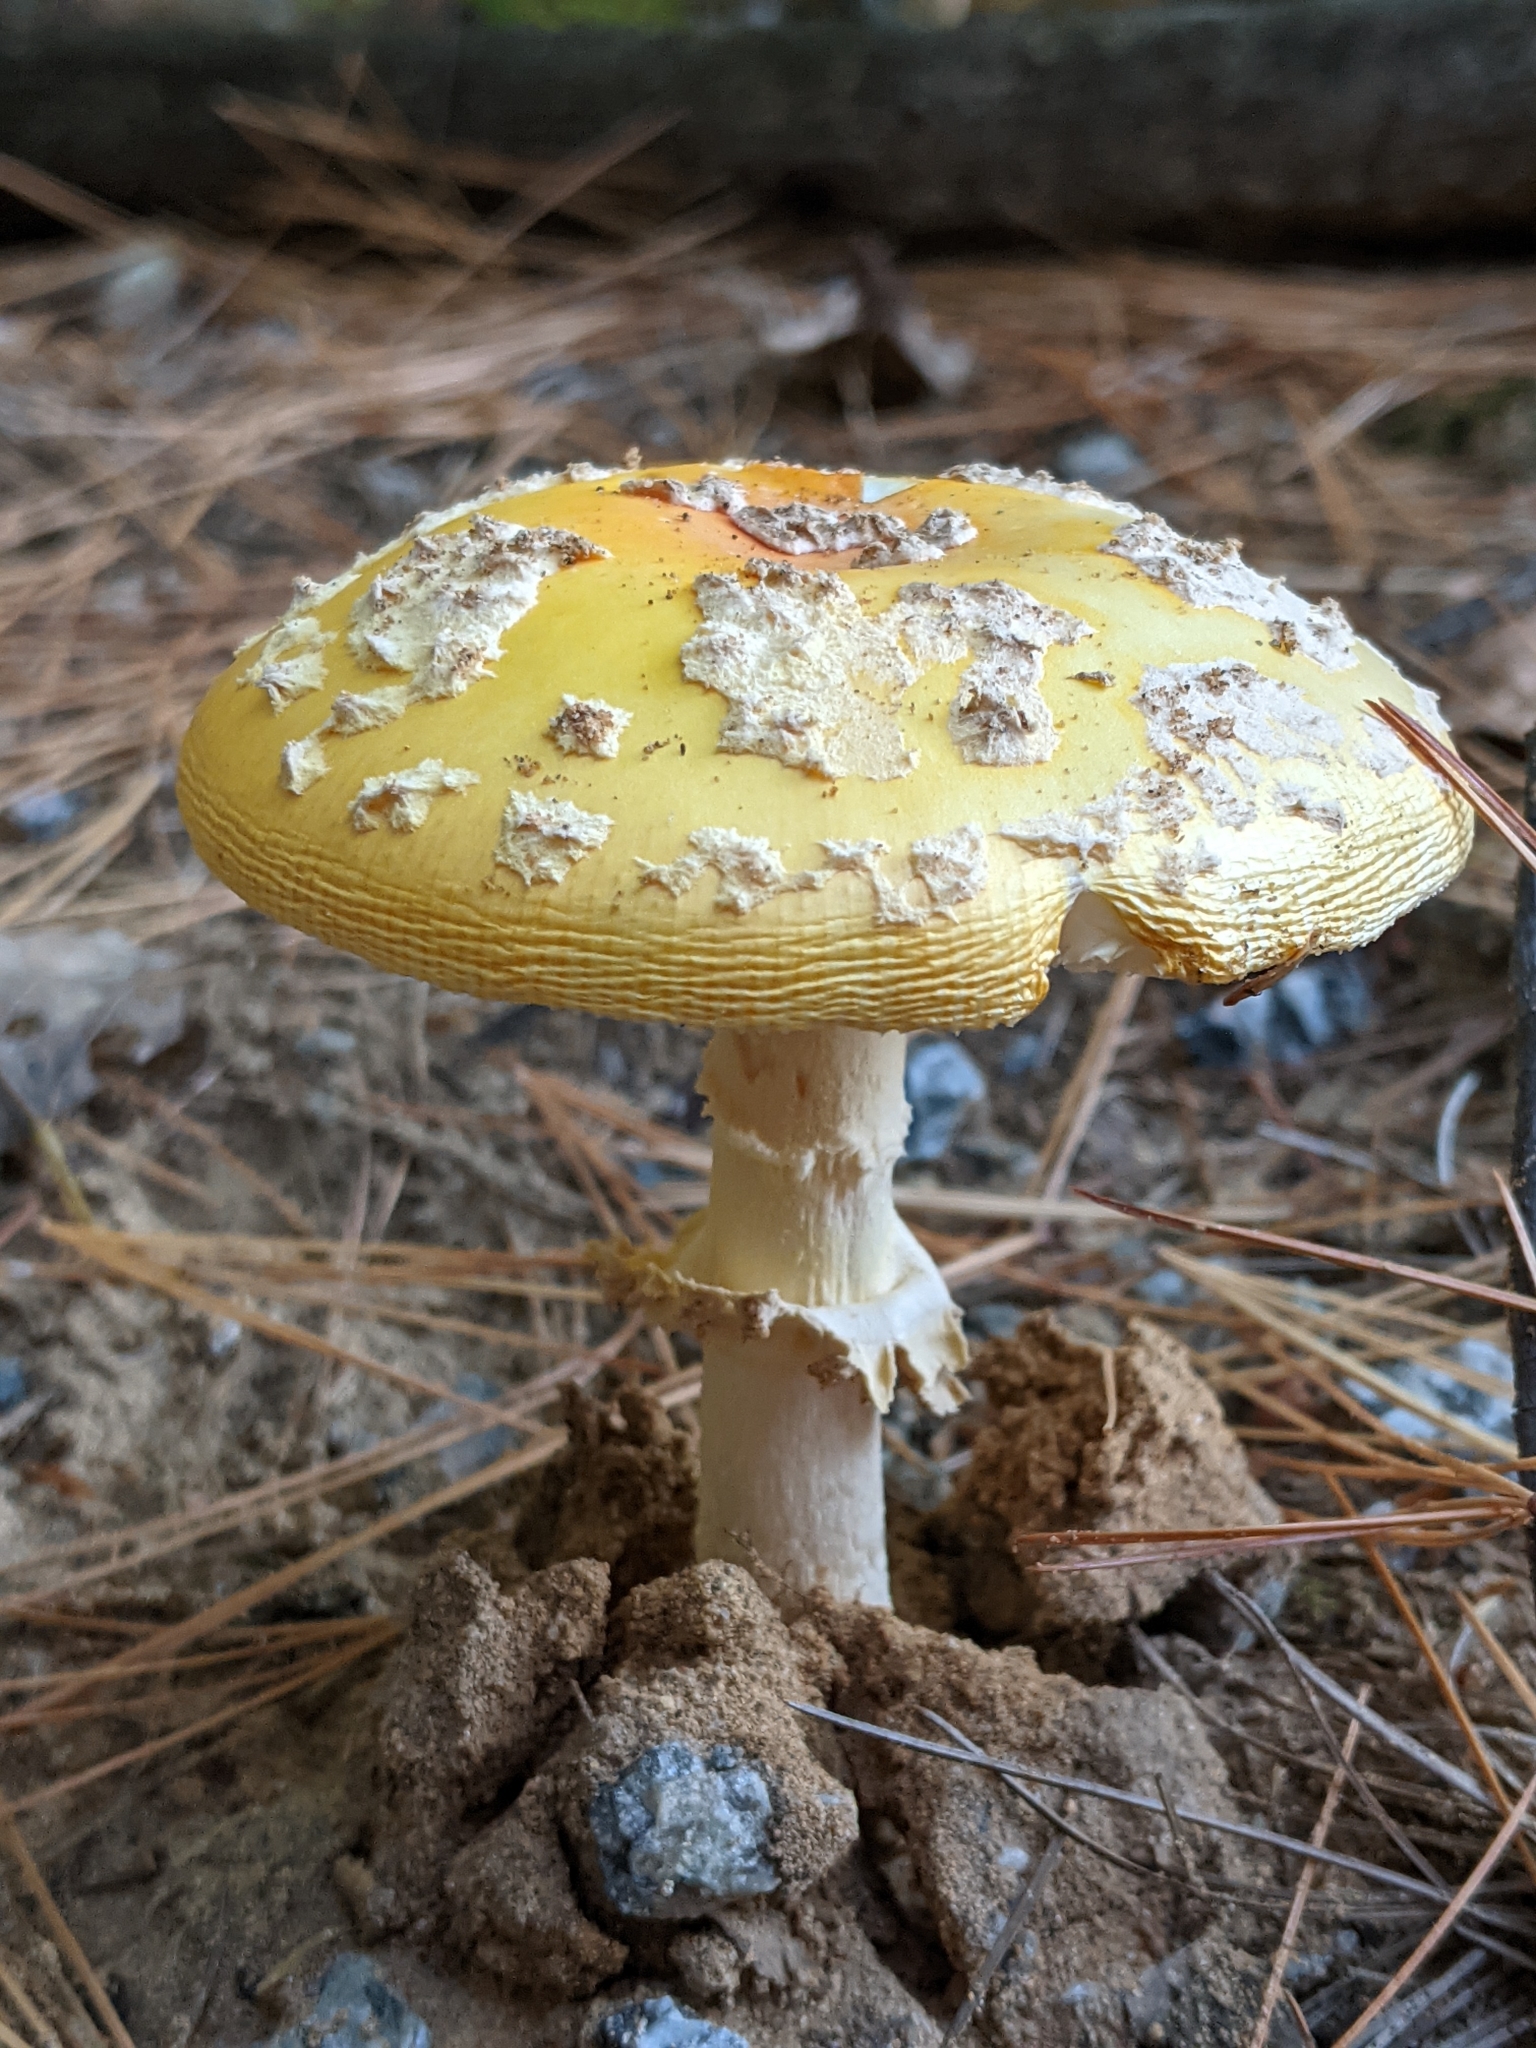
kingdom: Fungi
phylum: Basidiomycota
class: Agaricomycetes
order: Agaricales
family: Amanitaceae
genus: Amanita
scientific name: Amanita muscaria
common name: Fly agaric
